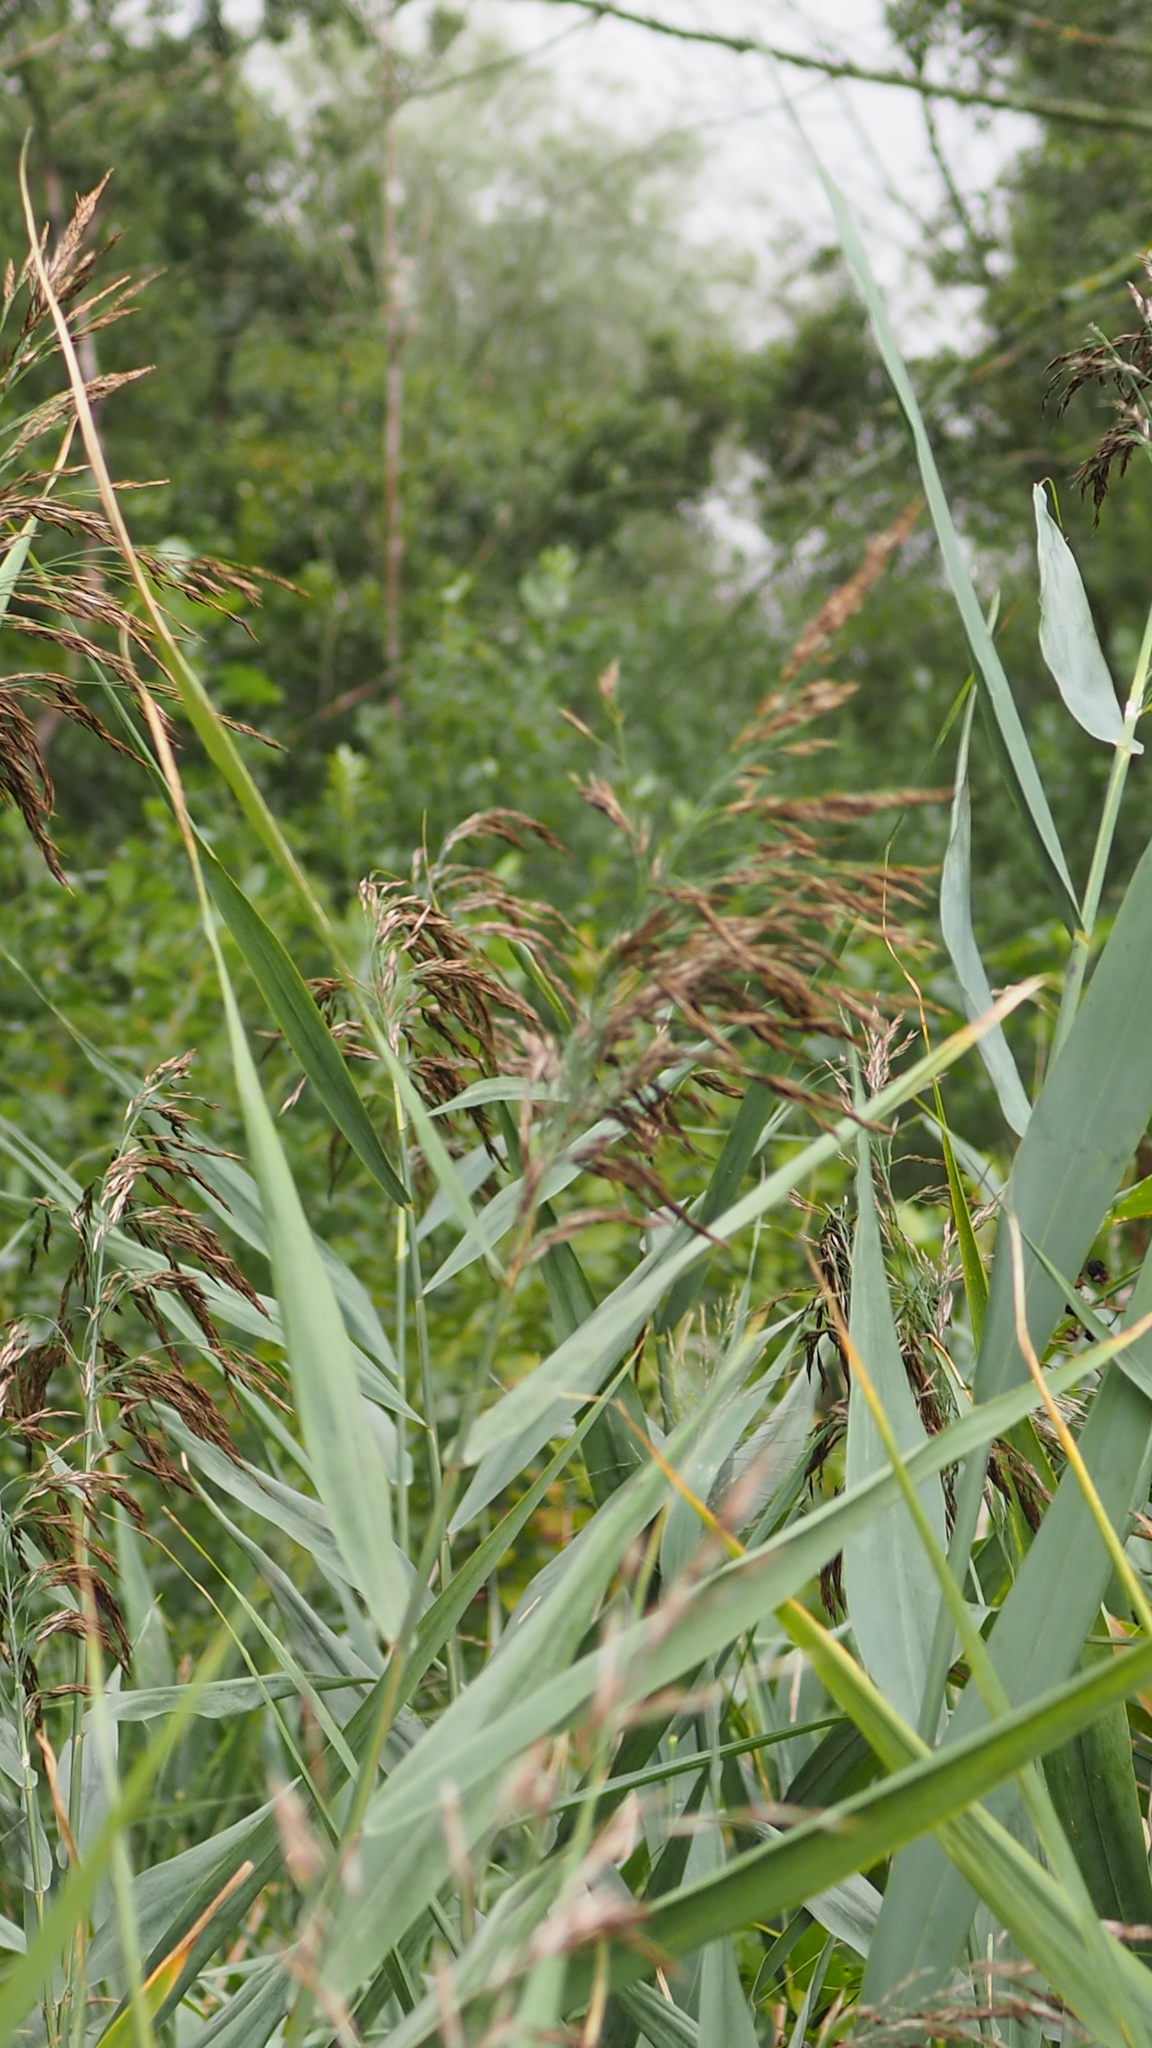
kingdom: Plantae
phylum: Tracheophyta
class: Liliopsida
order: Poales
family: Poaceae
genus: Phragmites
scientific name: Phragmites australis
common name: Common reed
